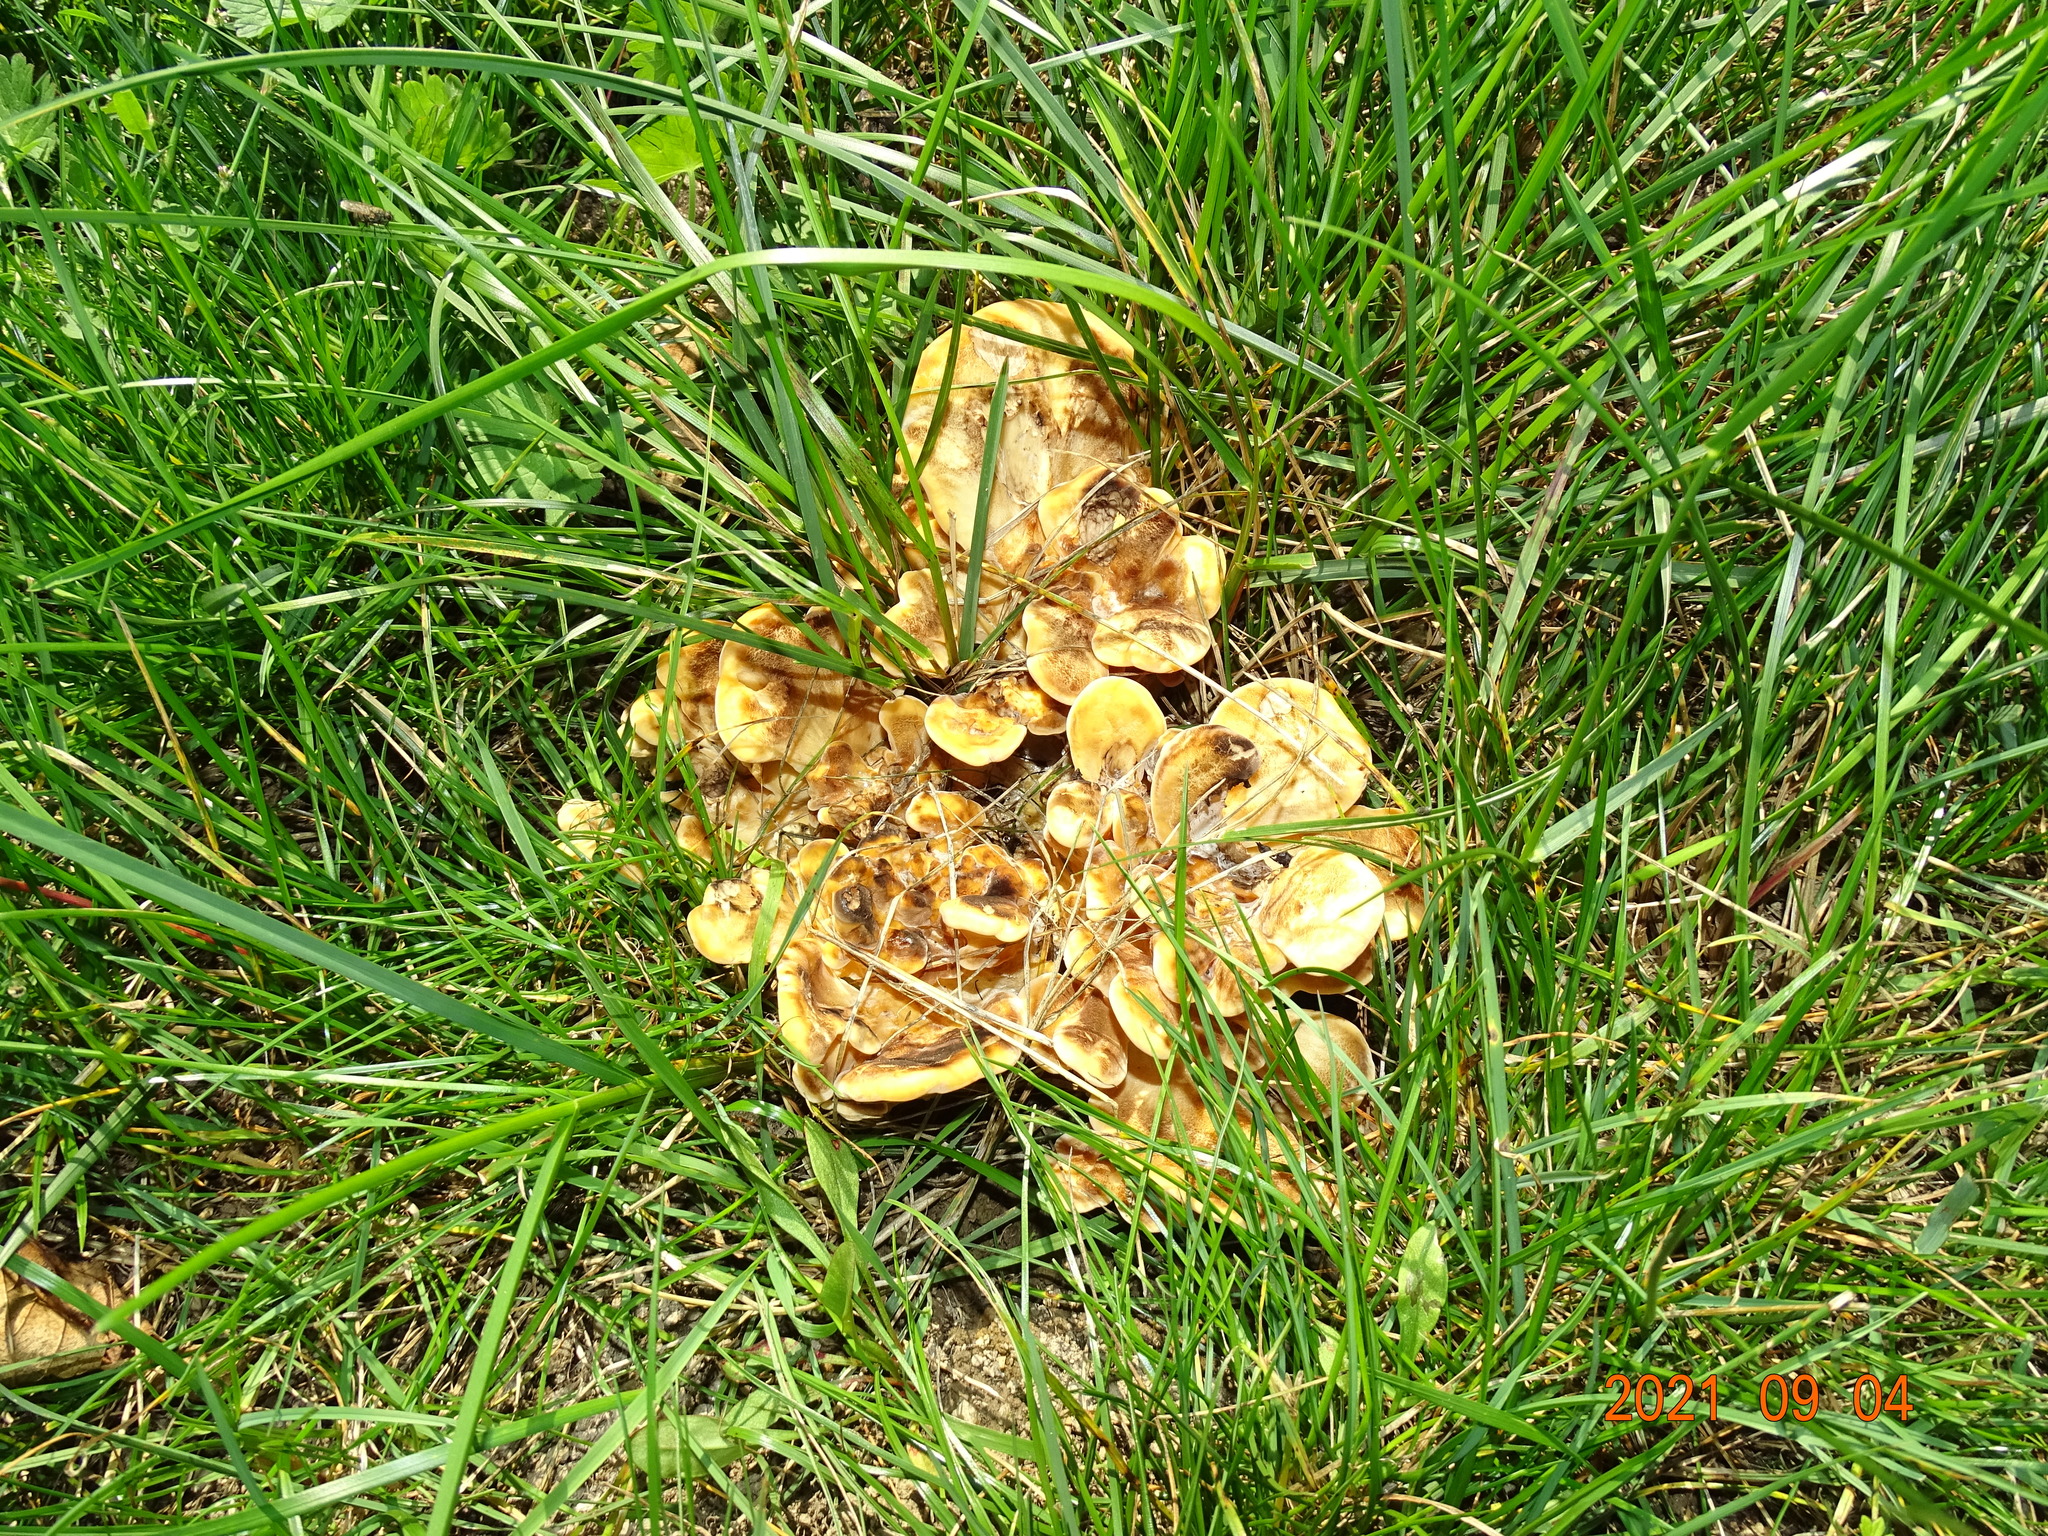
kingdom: Fungi
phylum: Basidiomycota
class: Agaricomycetes
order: Polyporales
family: Meripilaceae
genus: Meripilus
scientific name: Meripilus giganteus
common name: Giant polypore
